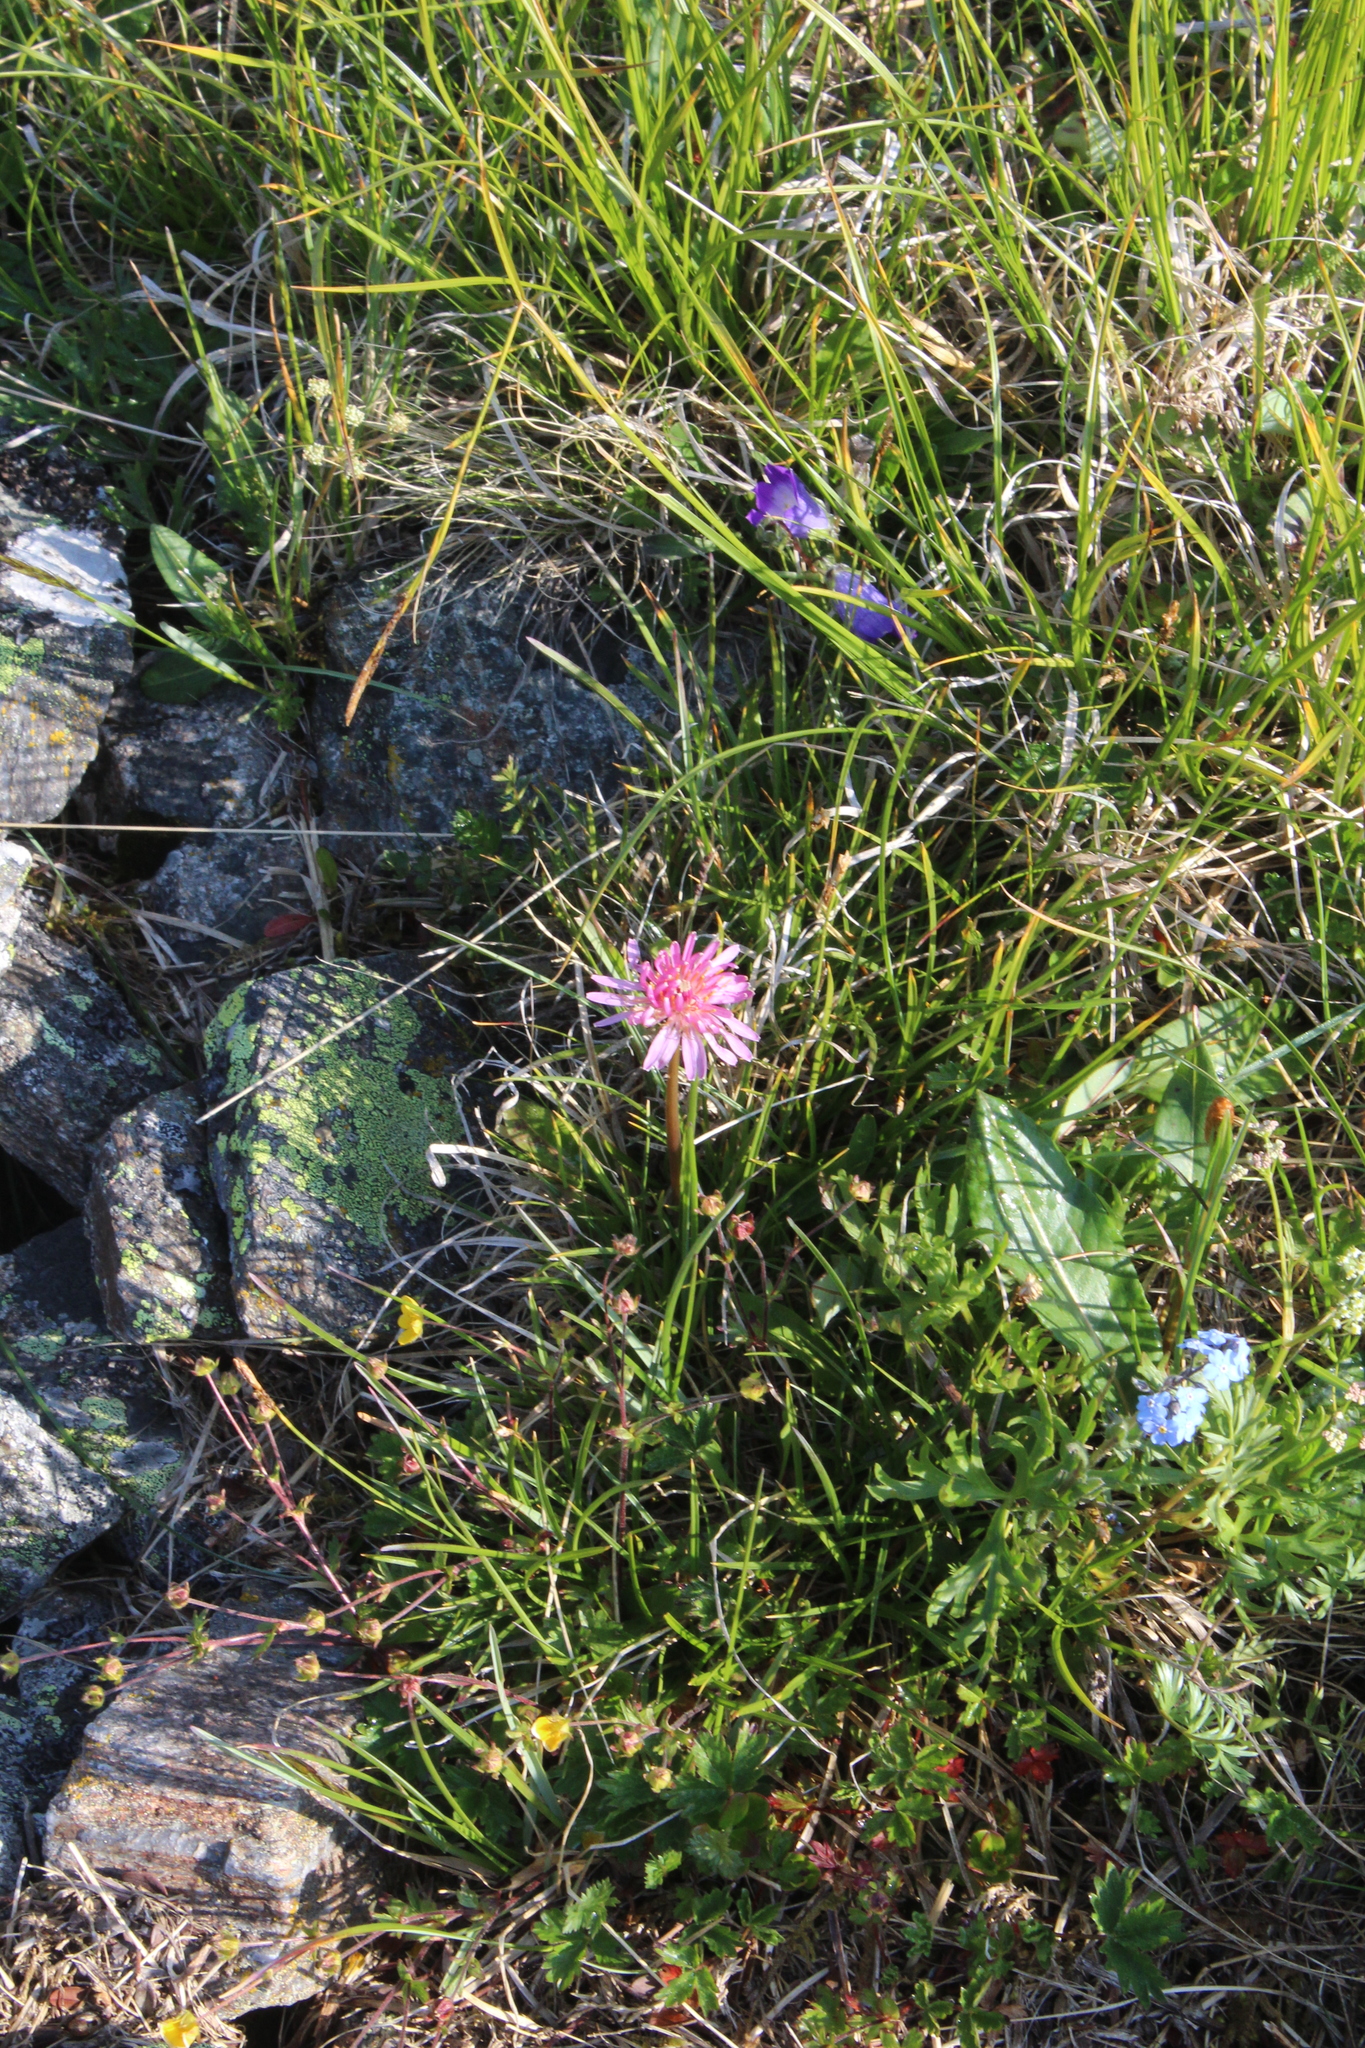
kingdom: Plantae
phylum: Tracheophyta
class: Magnoliopsida
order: Asterales
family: Asteraceae
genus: Taraxacum
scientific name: Taraxacum porphyranthum
